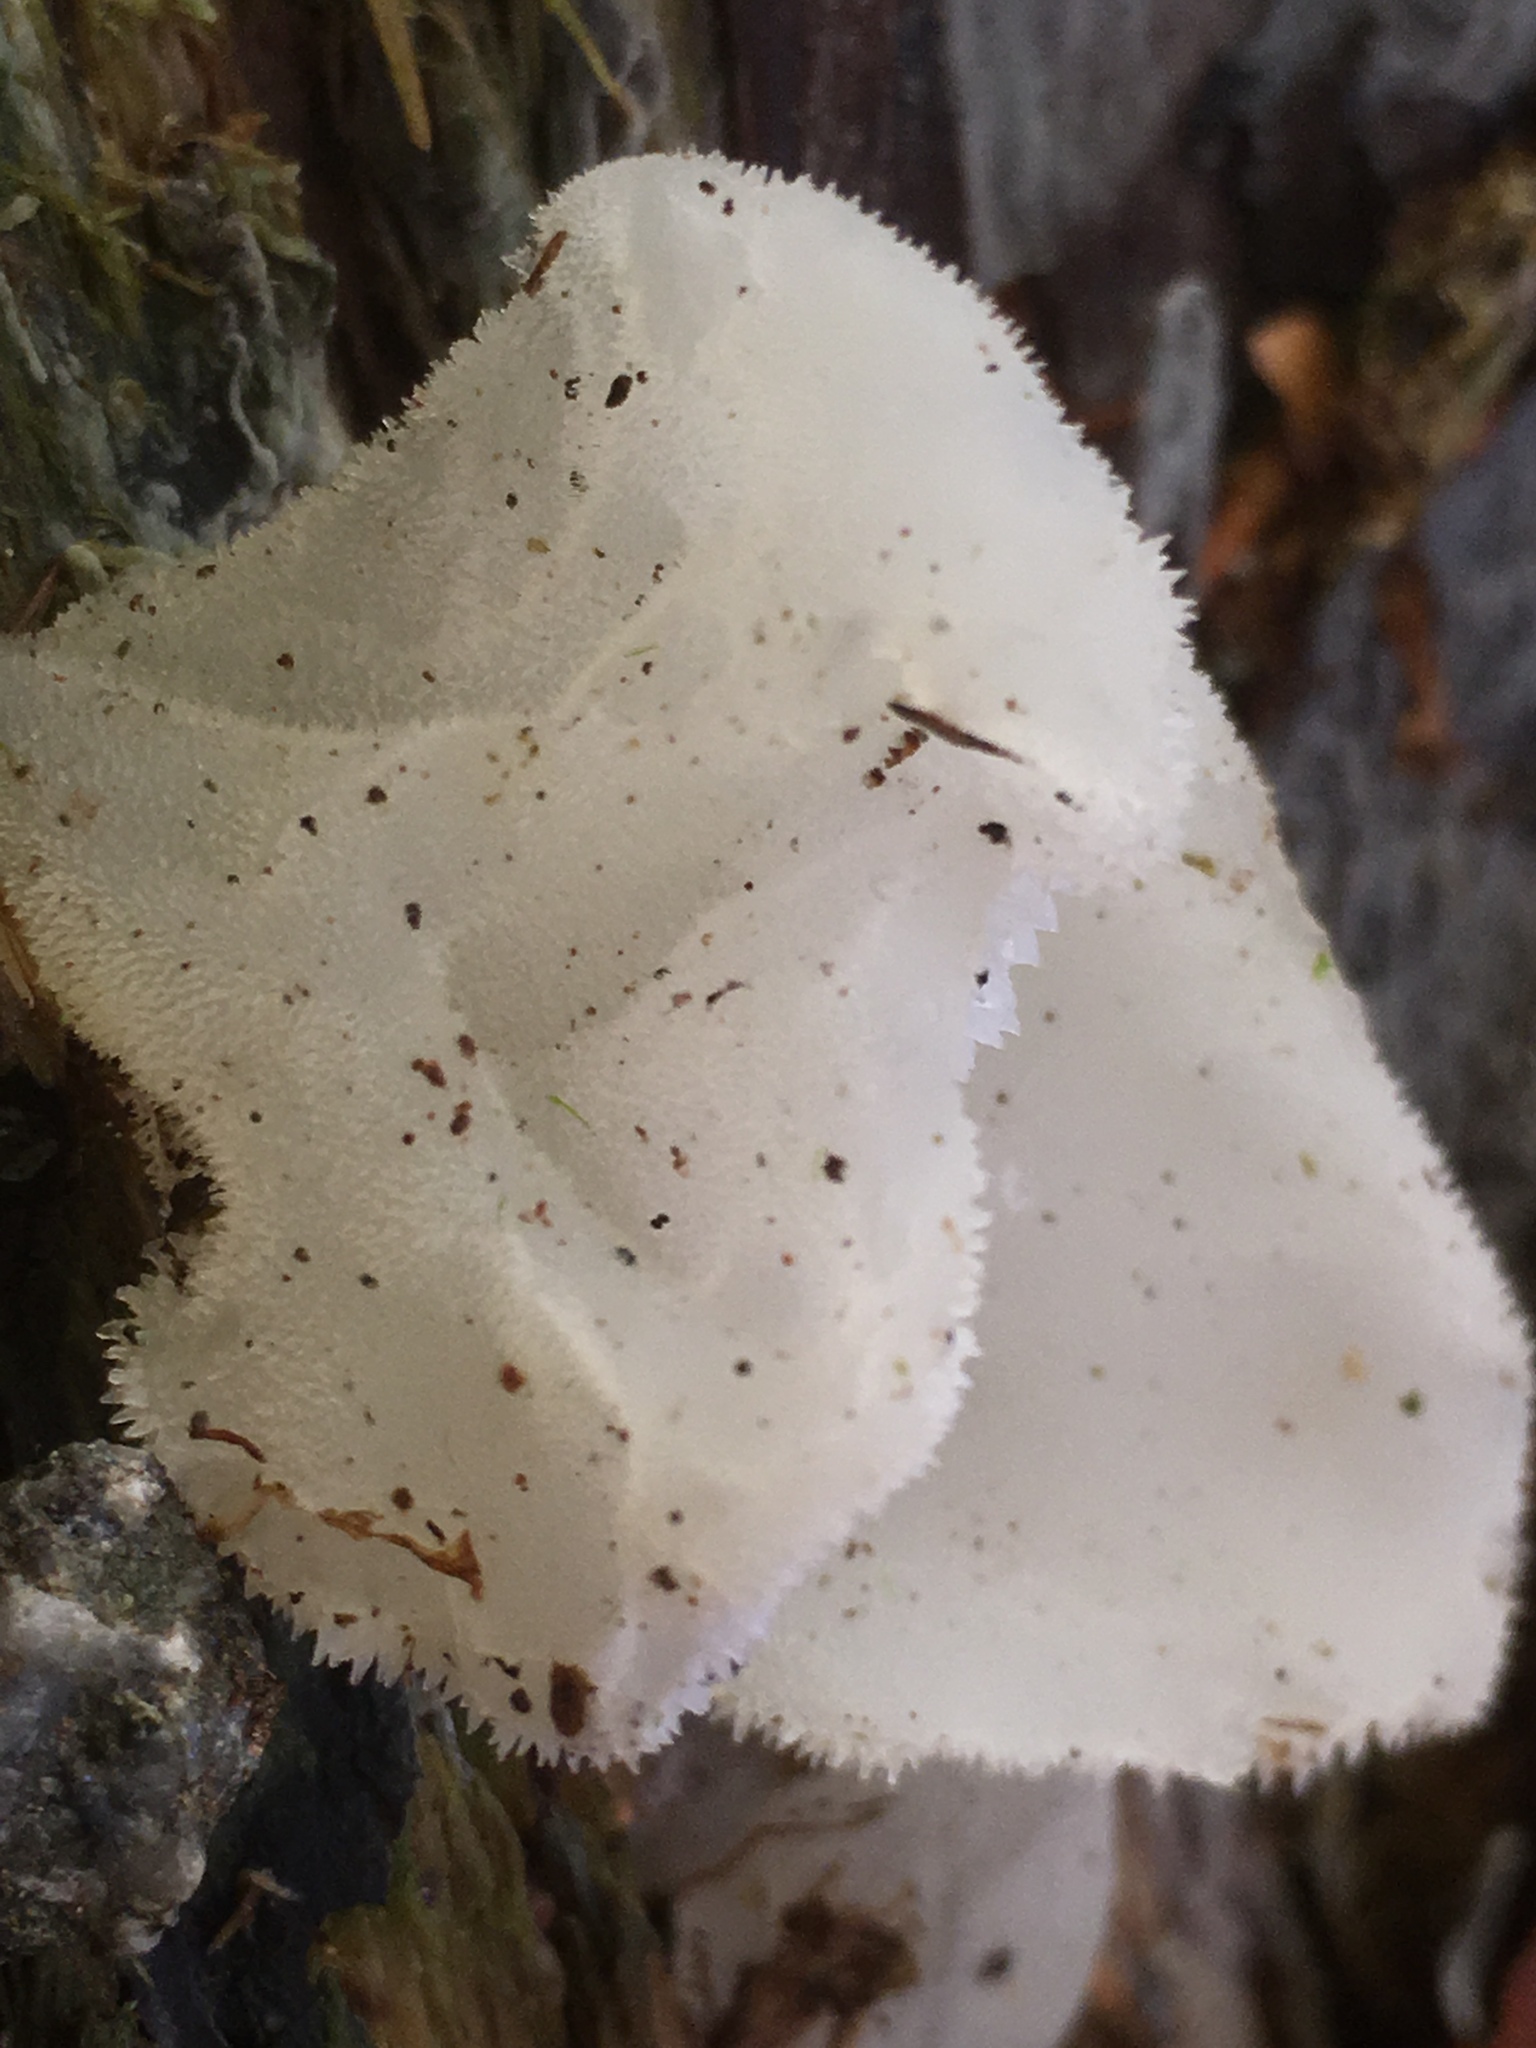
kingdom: Fungi
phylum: Basidiomycota
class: Agaricomycetes
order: Auriculariales
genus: Pseudohydnum
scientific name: Pseudohydnum gelatinosum
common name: Jelly tongue
